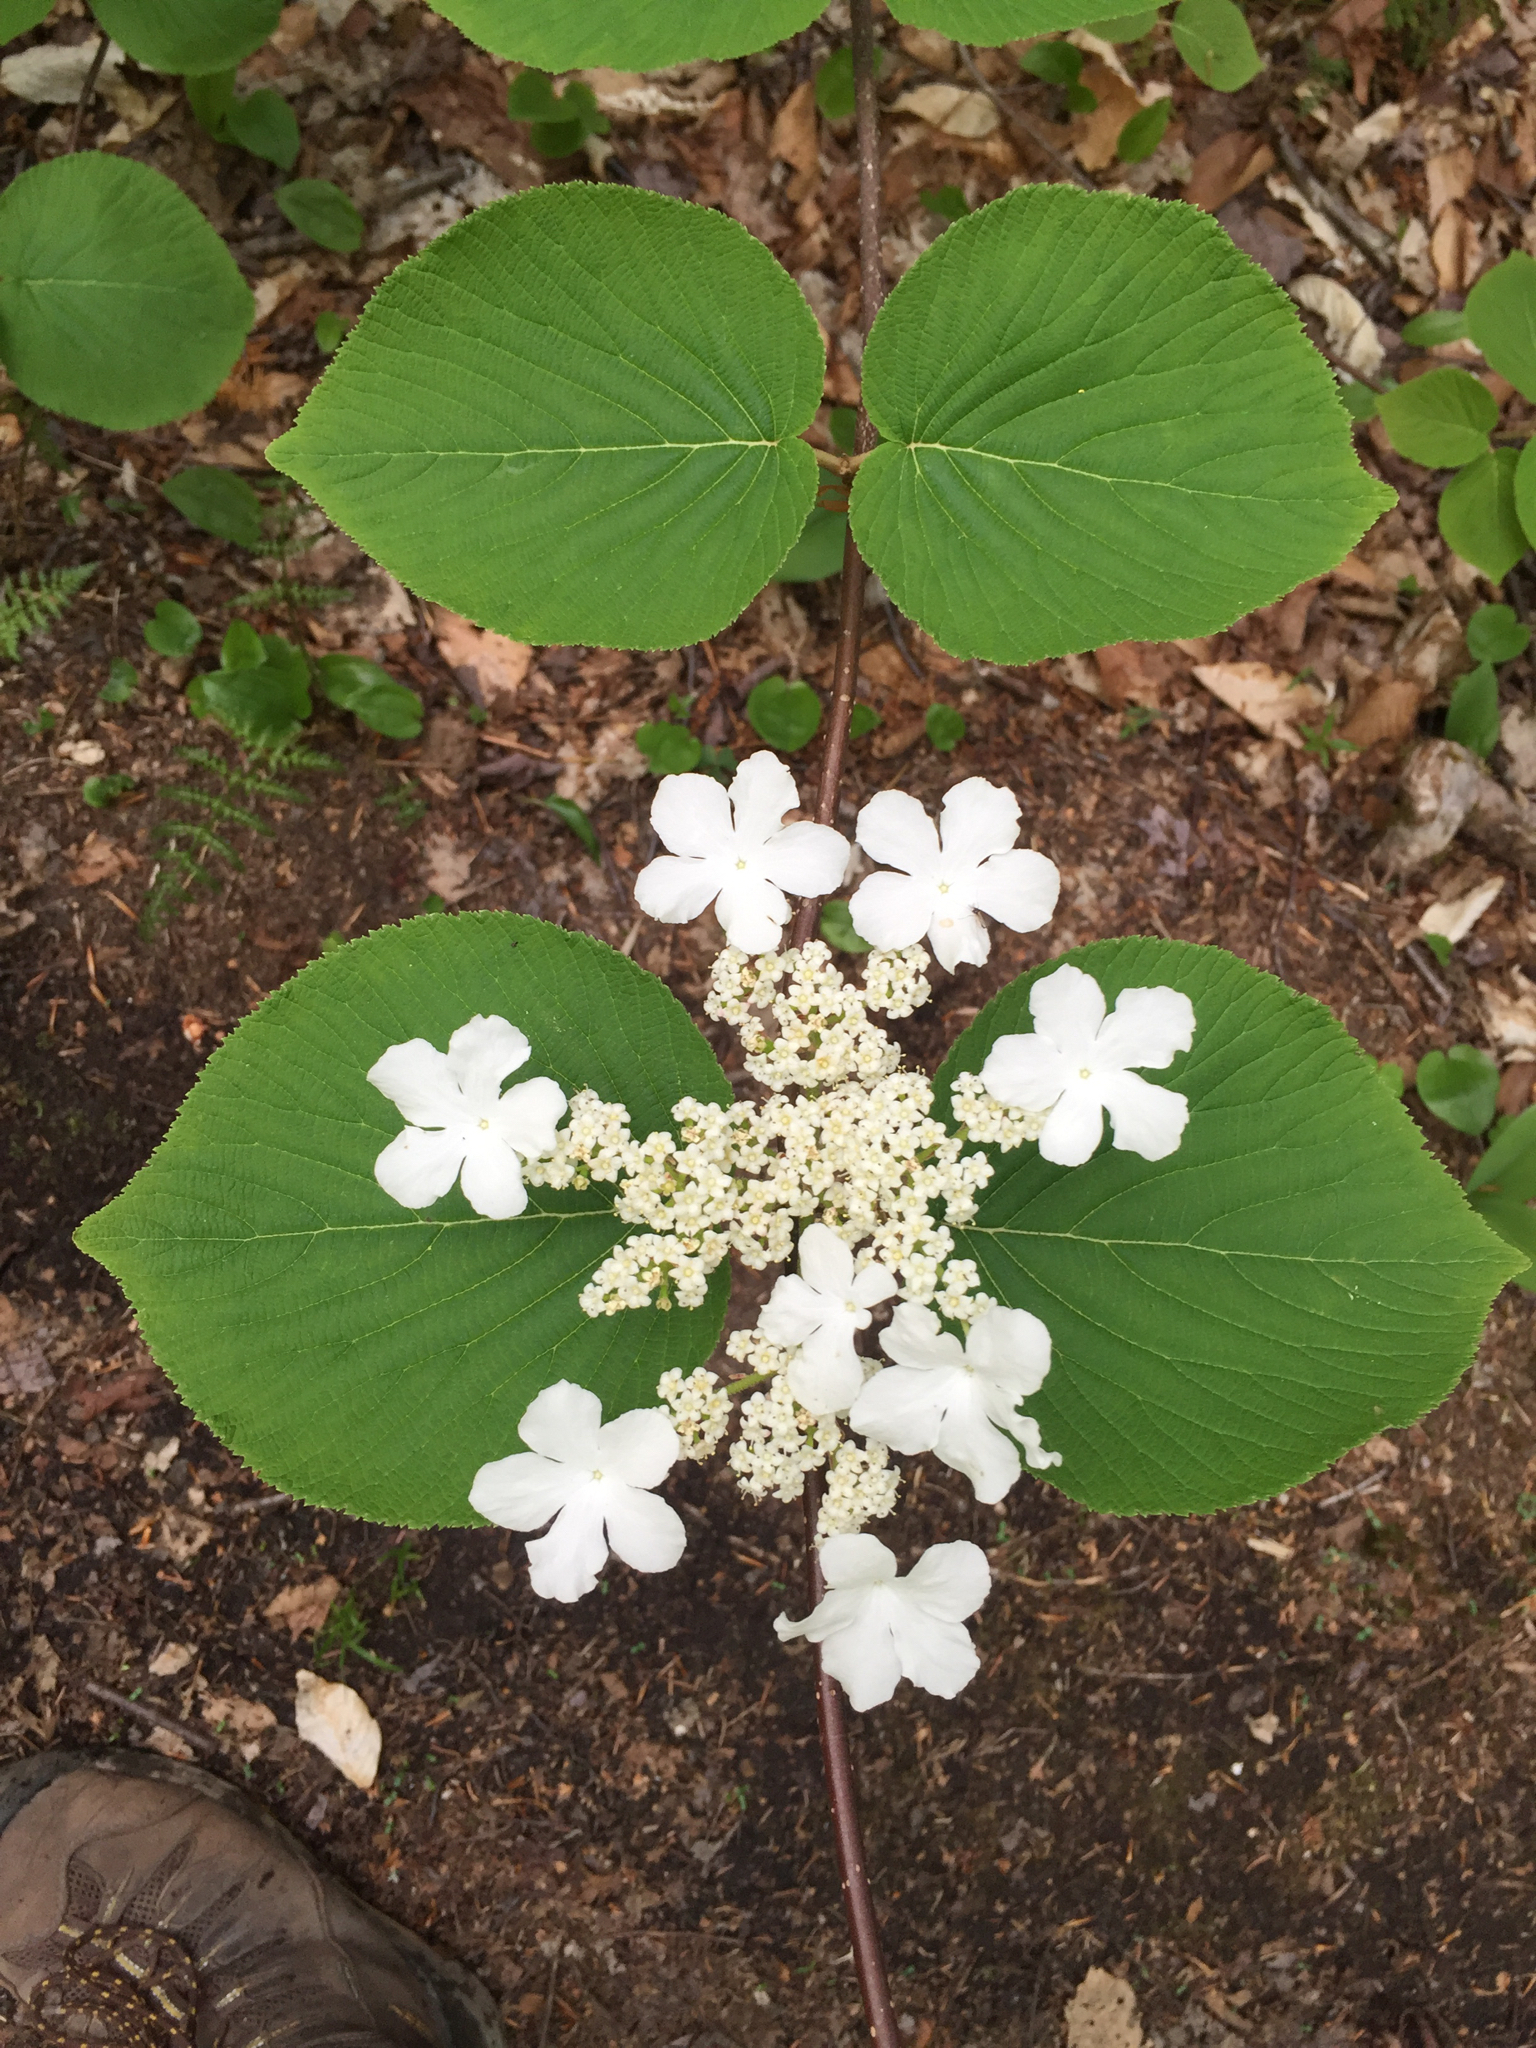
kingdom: Plantae
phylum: Tracheophyta
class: Magnoliopsida
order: Dipsacales
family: Viburnaceae
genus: Viburnum
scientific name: Viburnum lantanoides
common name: Hobblebush
